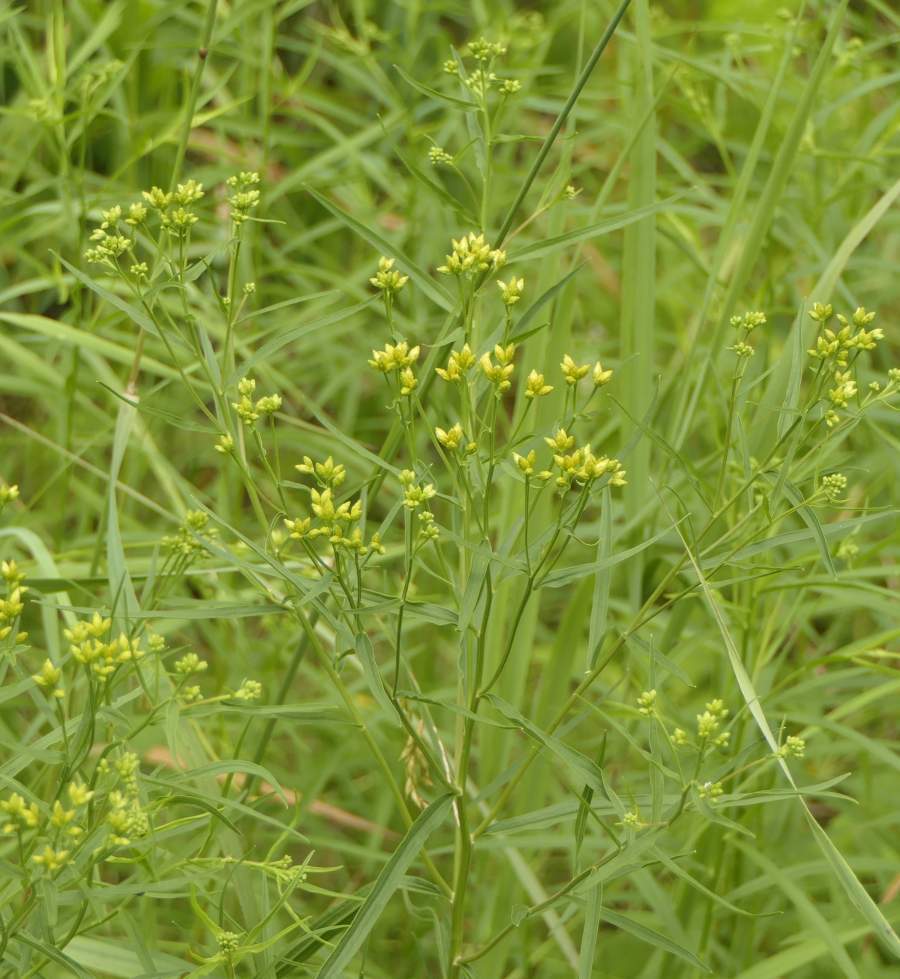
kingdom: Plantae
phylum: Tracheophyta
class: Magnoliopsida
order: Asterales
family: Asteraceae
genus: Euthamia
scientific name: Euthamia graminifolia
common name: Common goldentop
